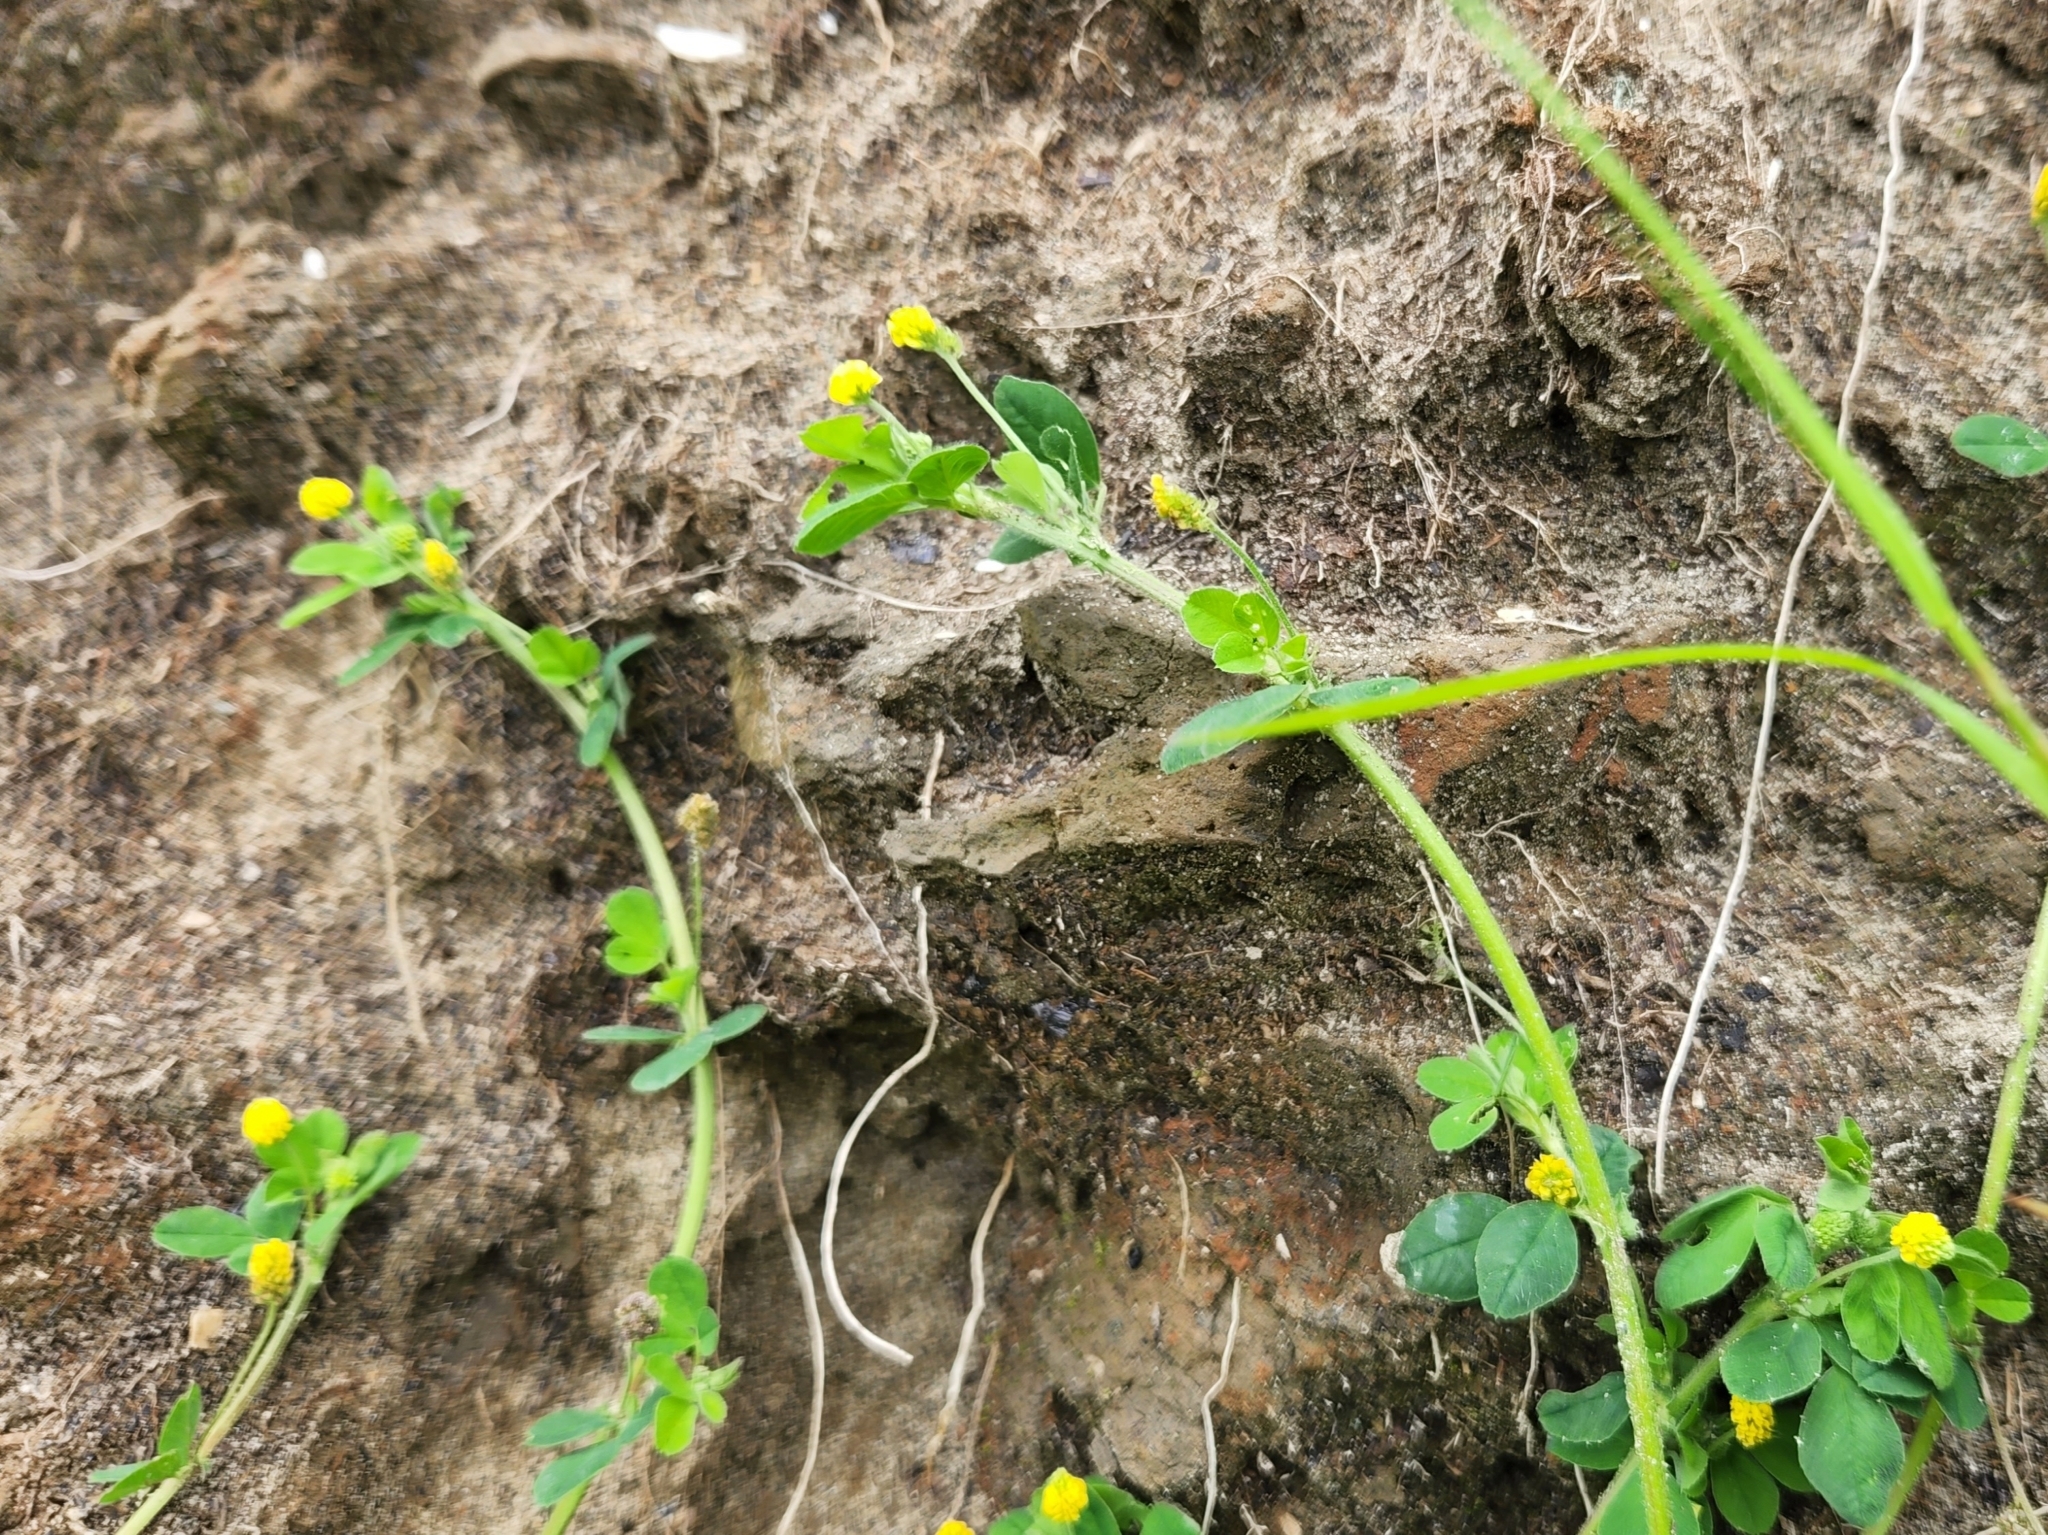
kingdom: Plantae
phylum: Tracheophyta
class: Magnoliopsida
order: Fabales
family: Fabaceae
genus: Medicago
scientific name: Medicago lupulina
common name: Black medick
